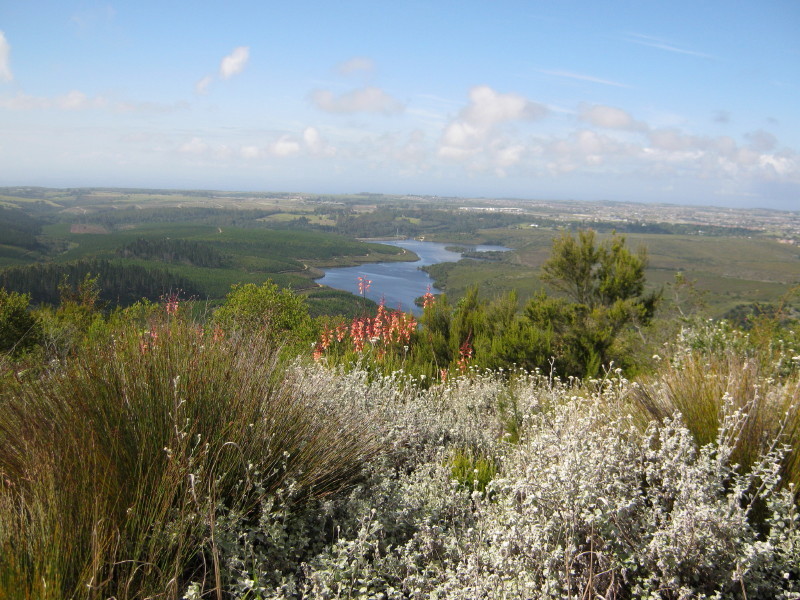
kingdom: Plantae
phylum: Tracheophyta
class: Magnoliopsida
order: Asterales
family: Asteraceae
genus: Helichrysum
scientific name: Helichrysum petiolare
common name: Licorice-plant
